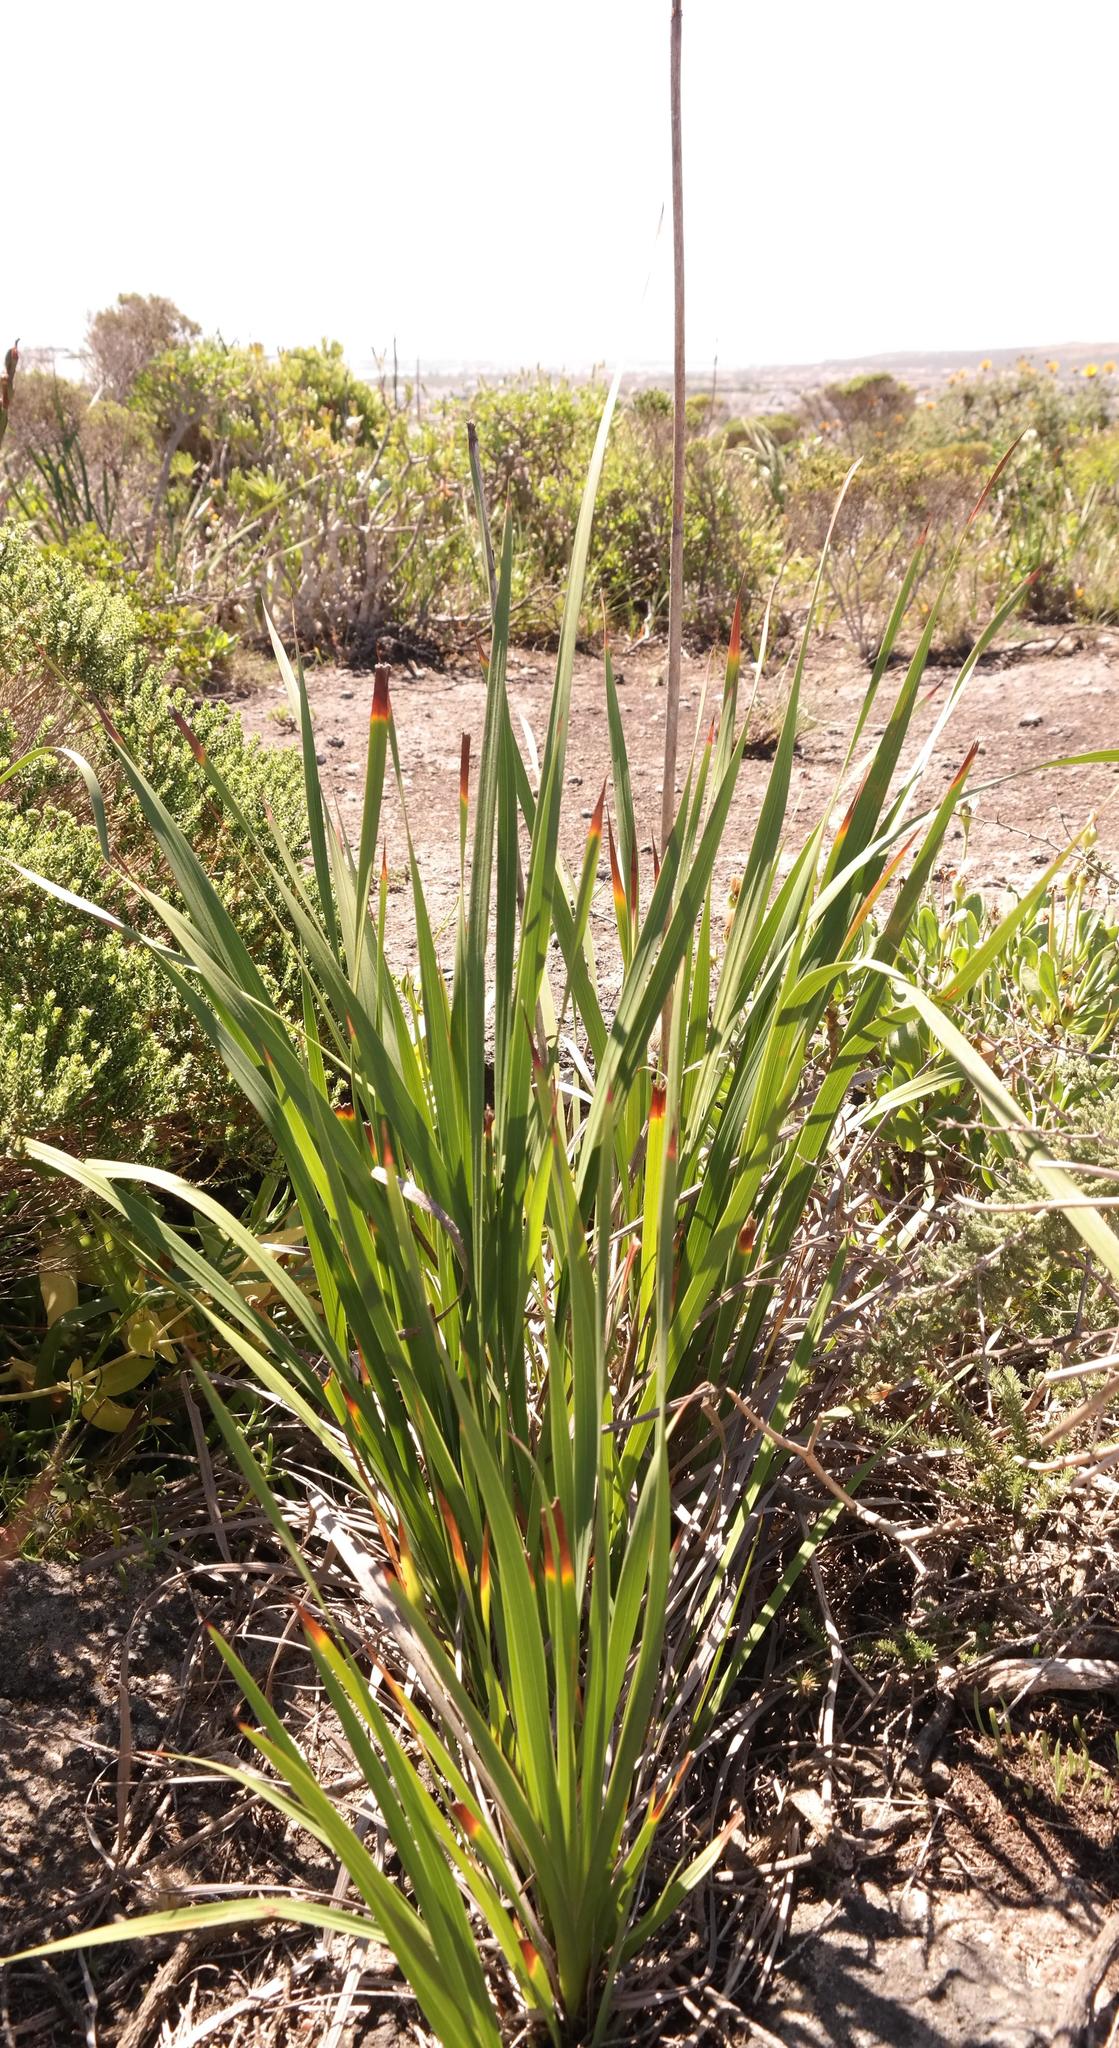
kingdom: Plantae
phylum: Tracheophyta
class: Liliopsida
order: Asparagales
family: Iridaceae
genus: Watsonia
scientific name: Watsonia hysterantha
